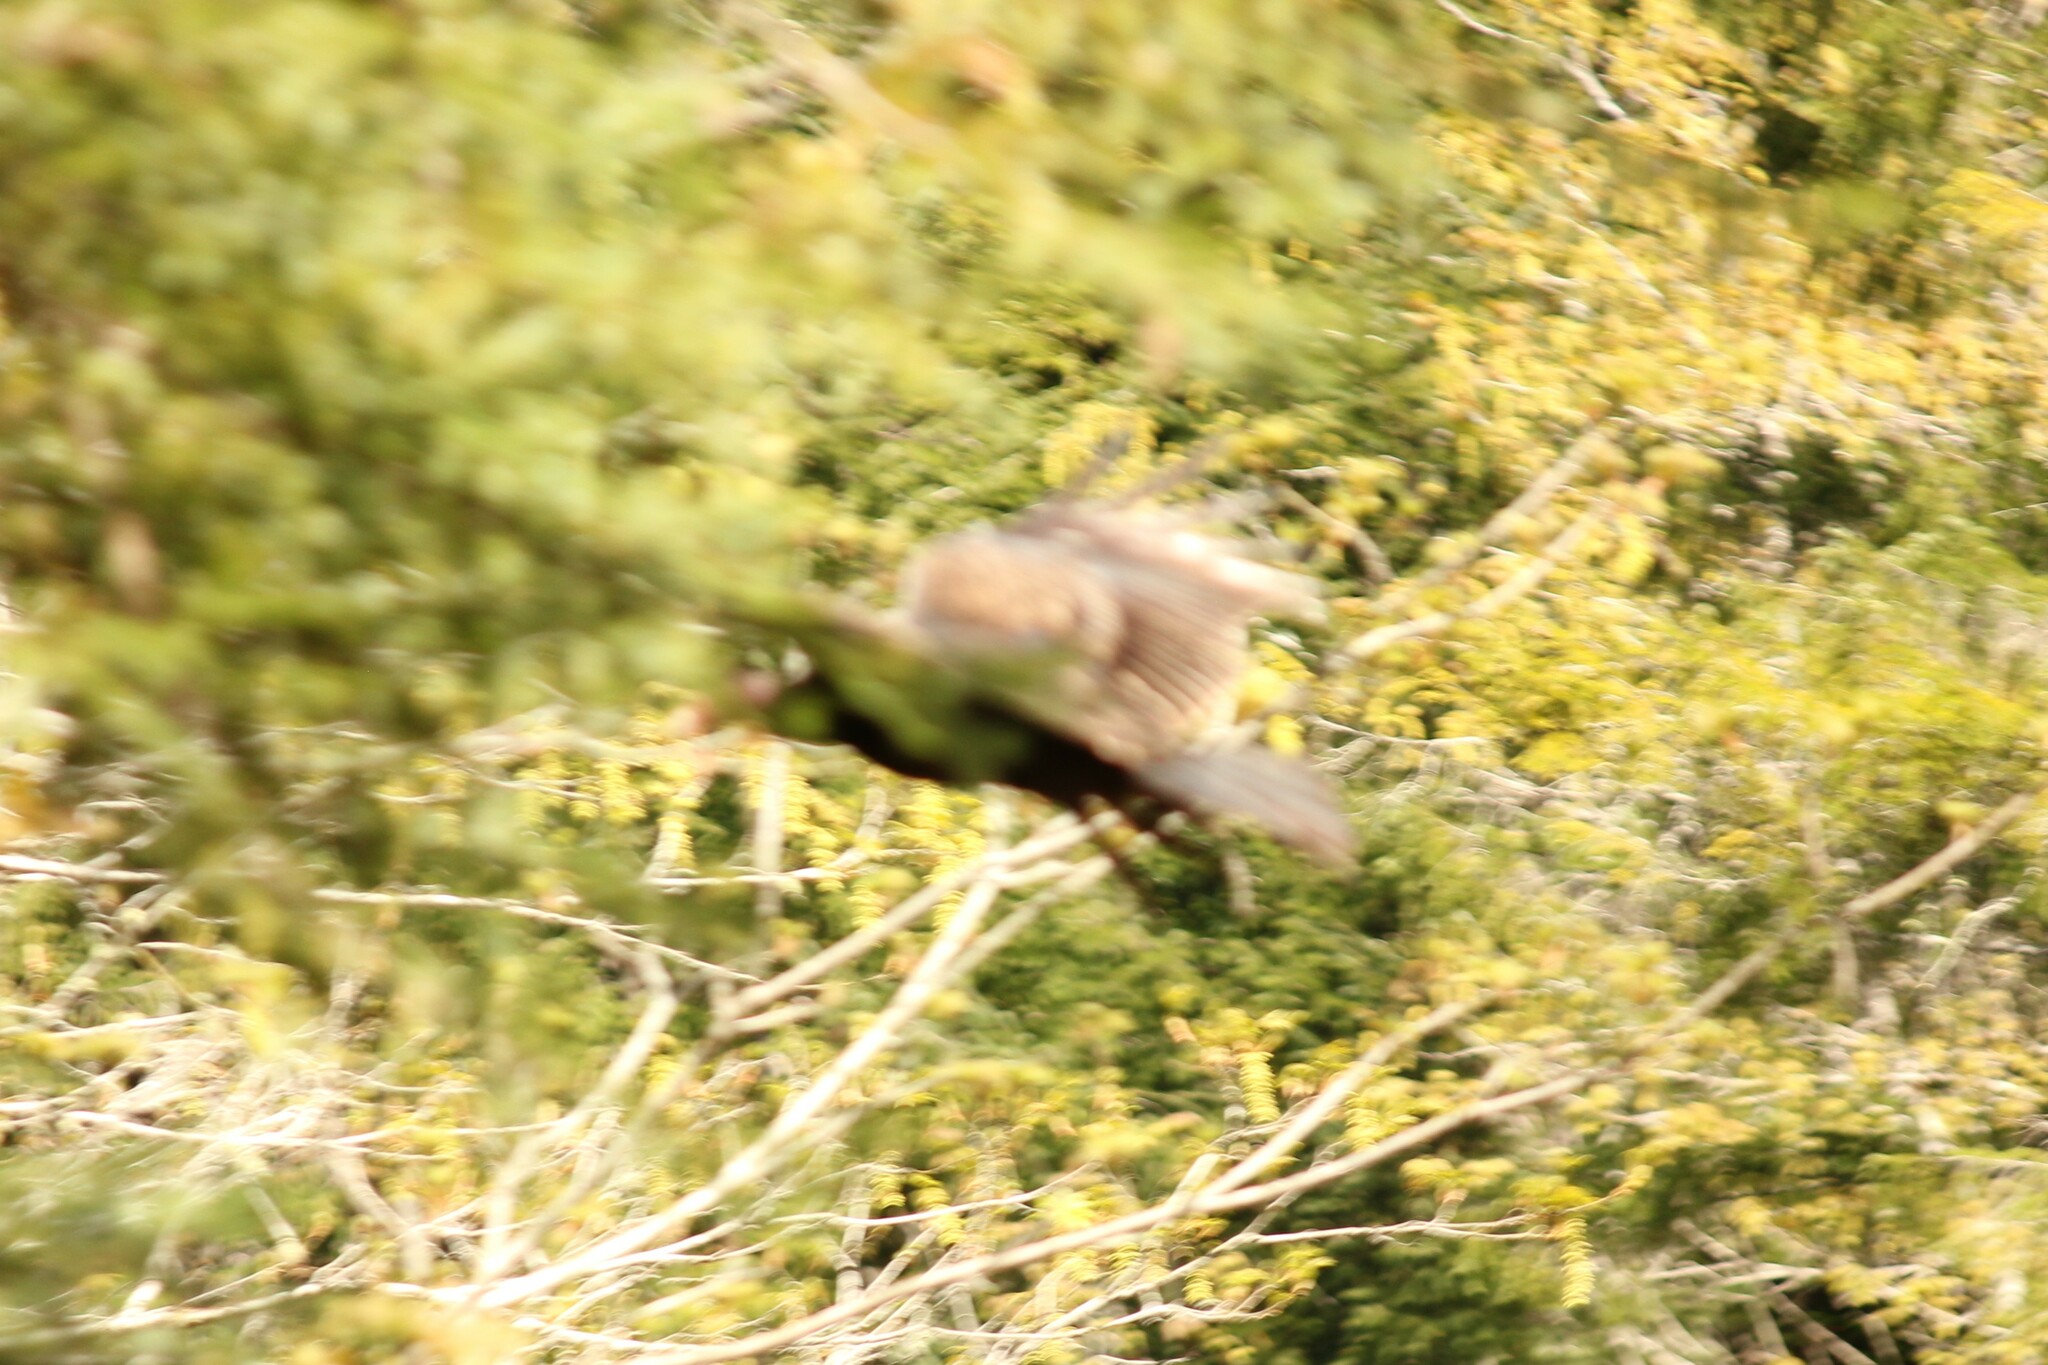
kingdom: Animalia
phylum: Chordata
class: Aves
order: Accipitriformes
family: Cathartidae
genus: Cathartes
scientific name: Cathartes aura
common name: Turkey vulture
